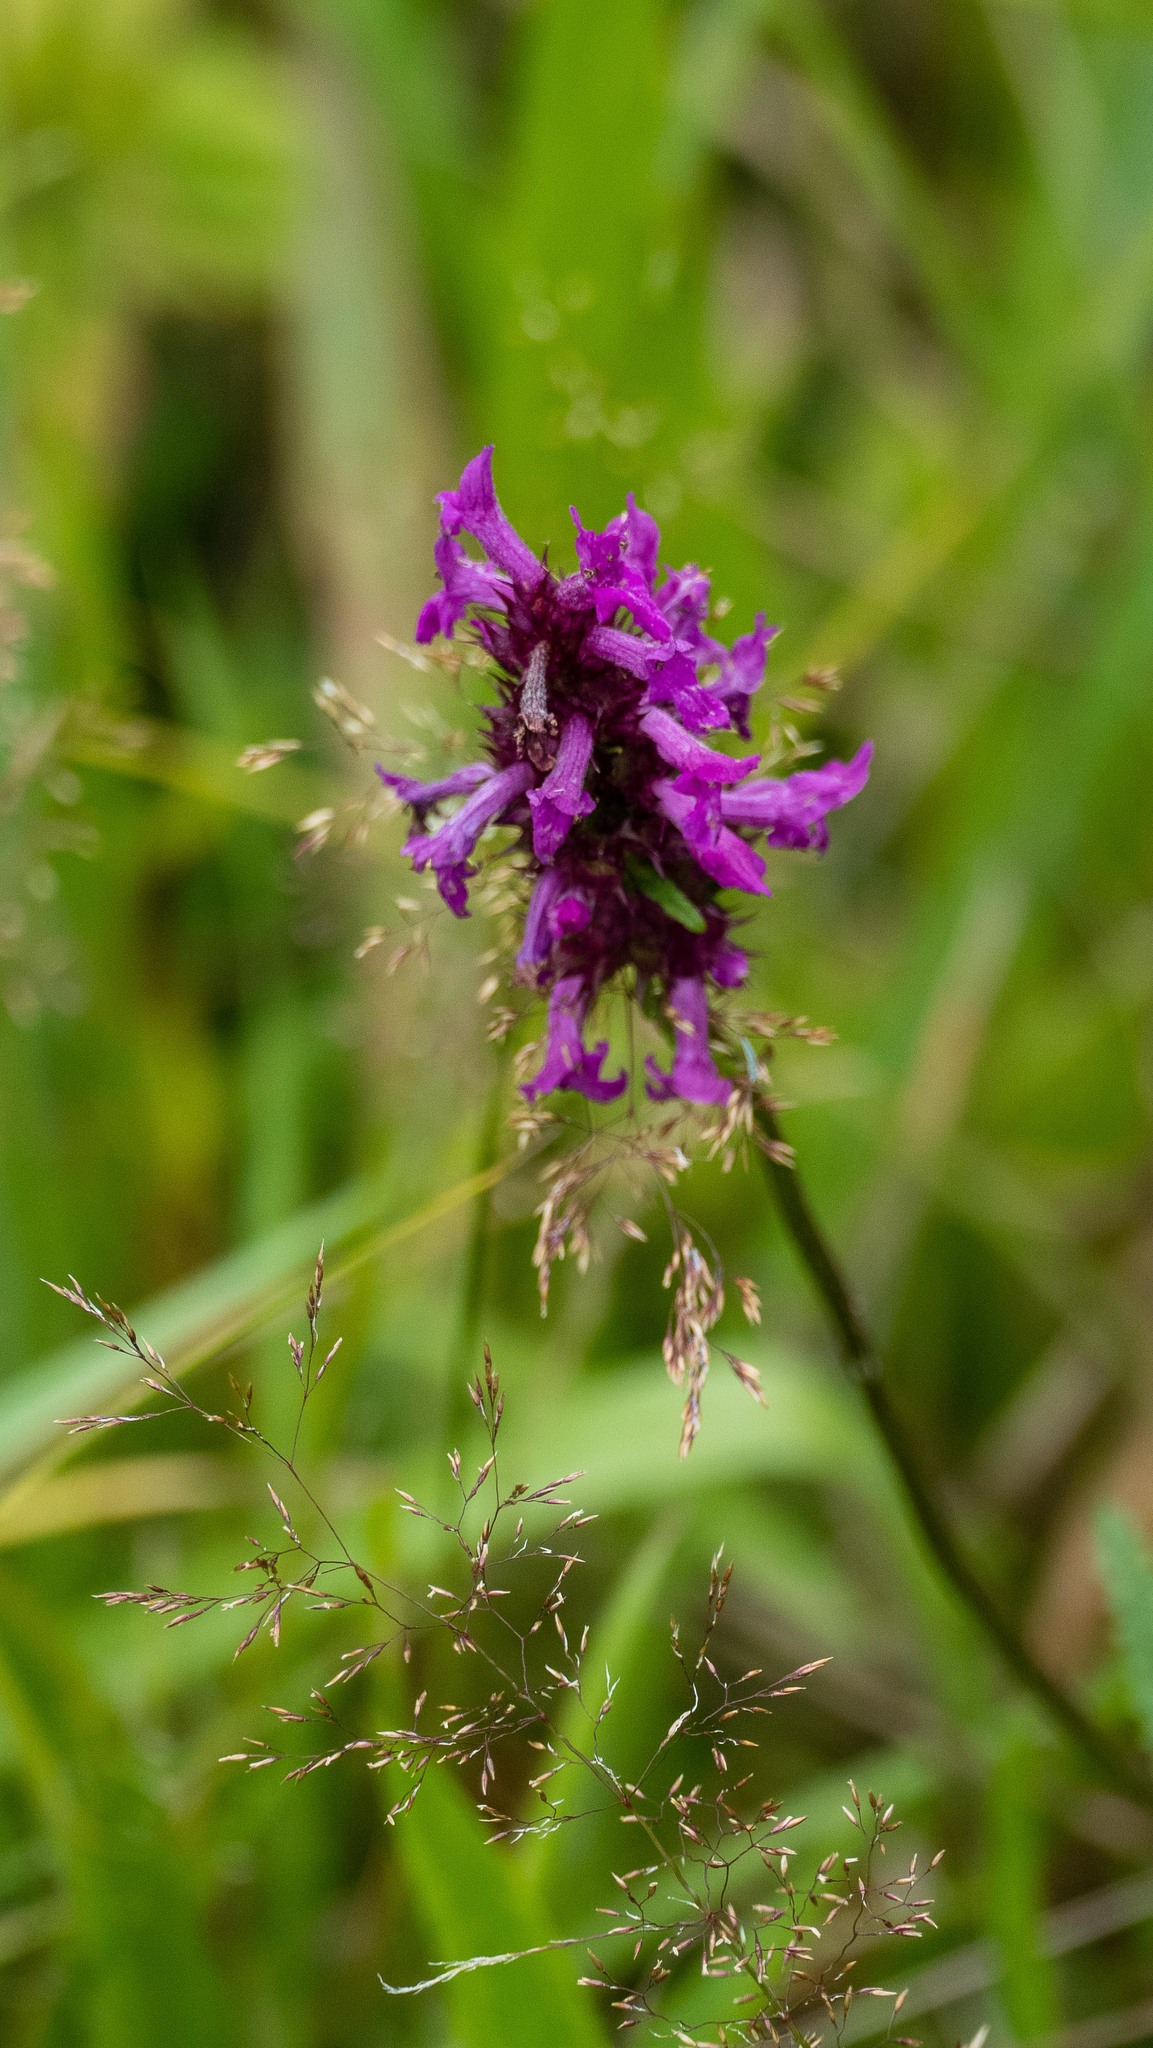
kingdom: Plantae
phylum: Tracheophyta
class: Magnoliopsida
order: Lamiales
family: Lamiaceae
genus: Betonica
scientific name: Betonica officinalis
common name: Bishop's-wort
